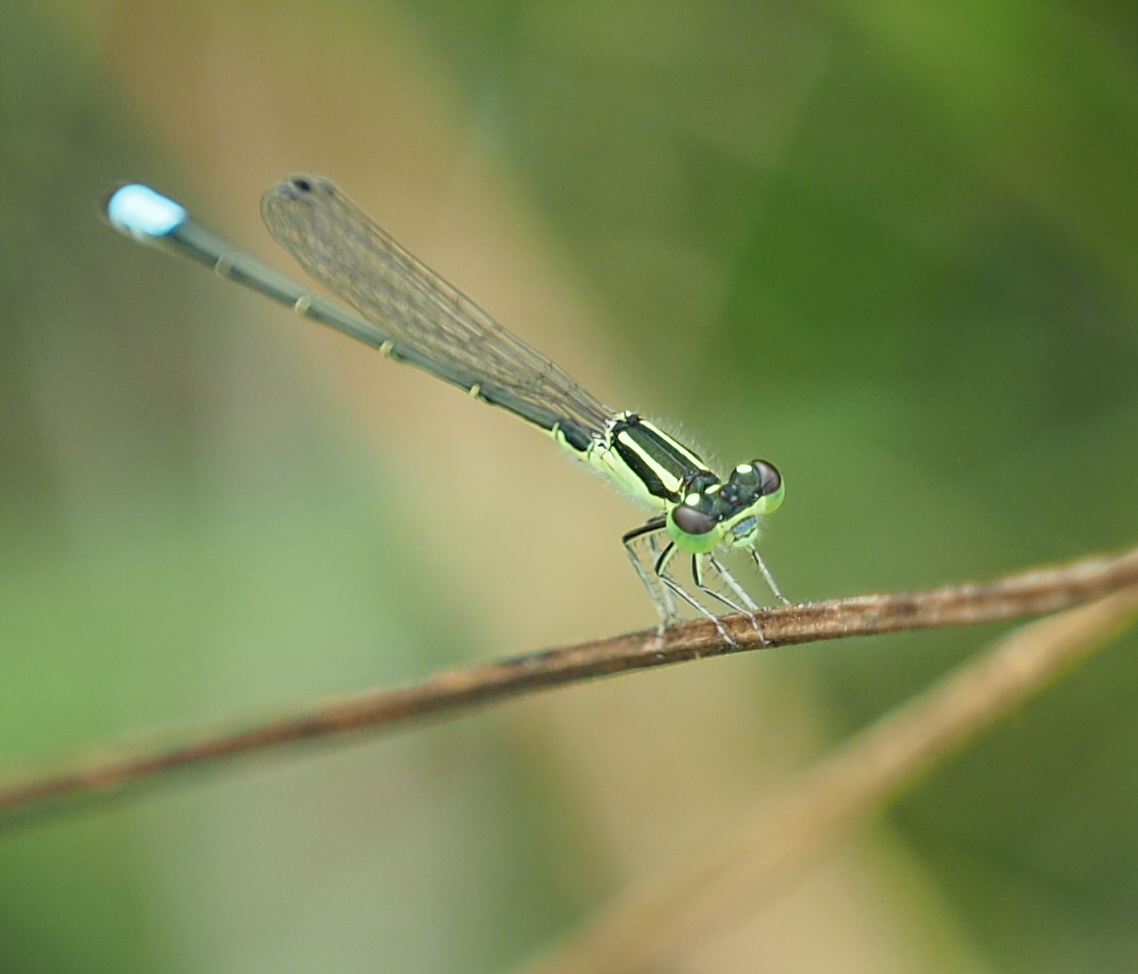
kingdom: Animalia
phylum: Arthropoda
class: Insecta
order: Odonata
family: Coenagrionidae
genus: Ischnura
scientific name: Ischnura verticalis
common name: Eastern forktail
